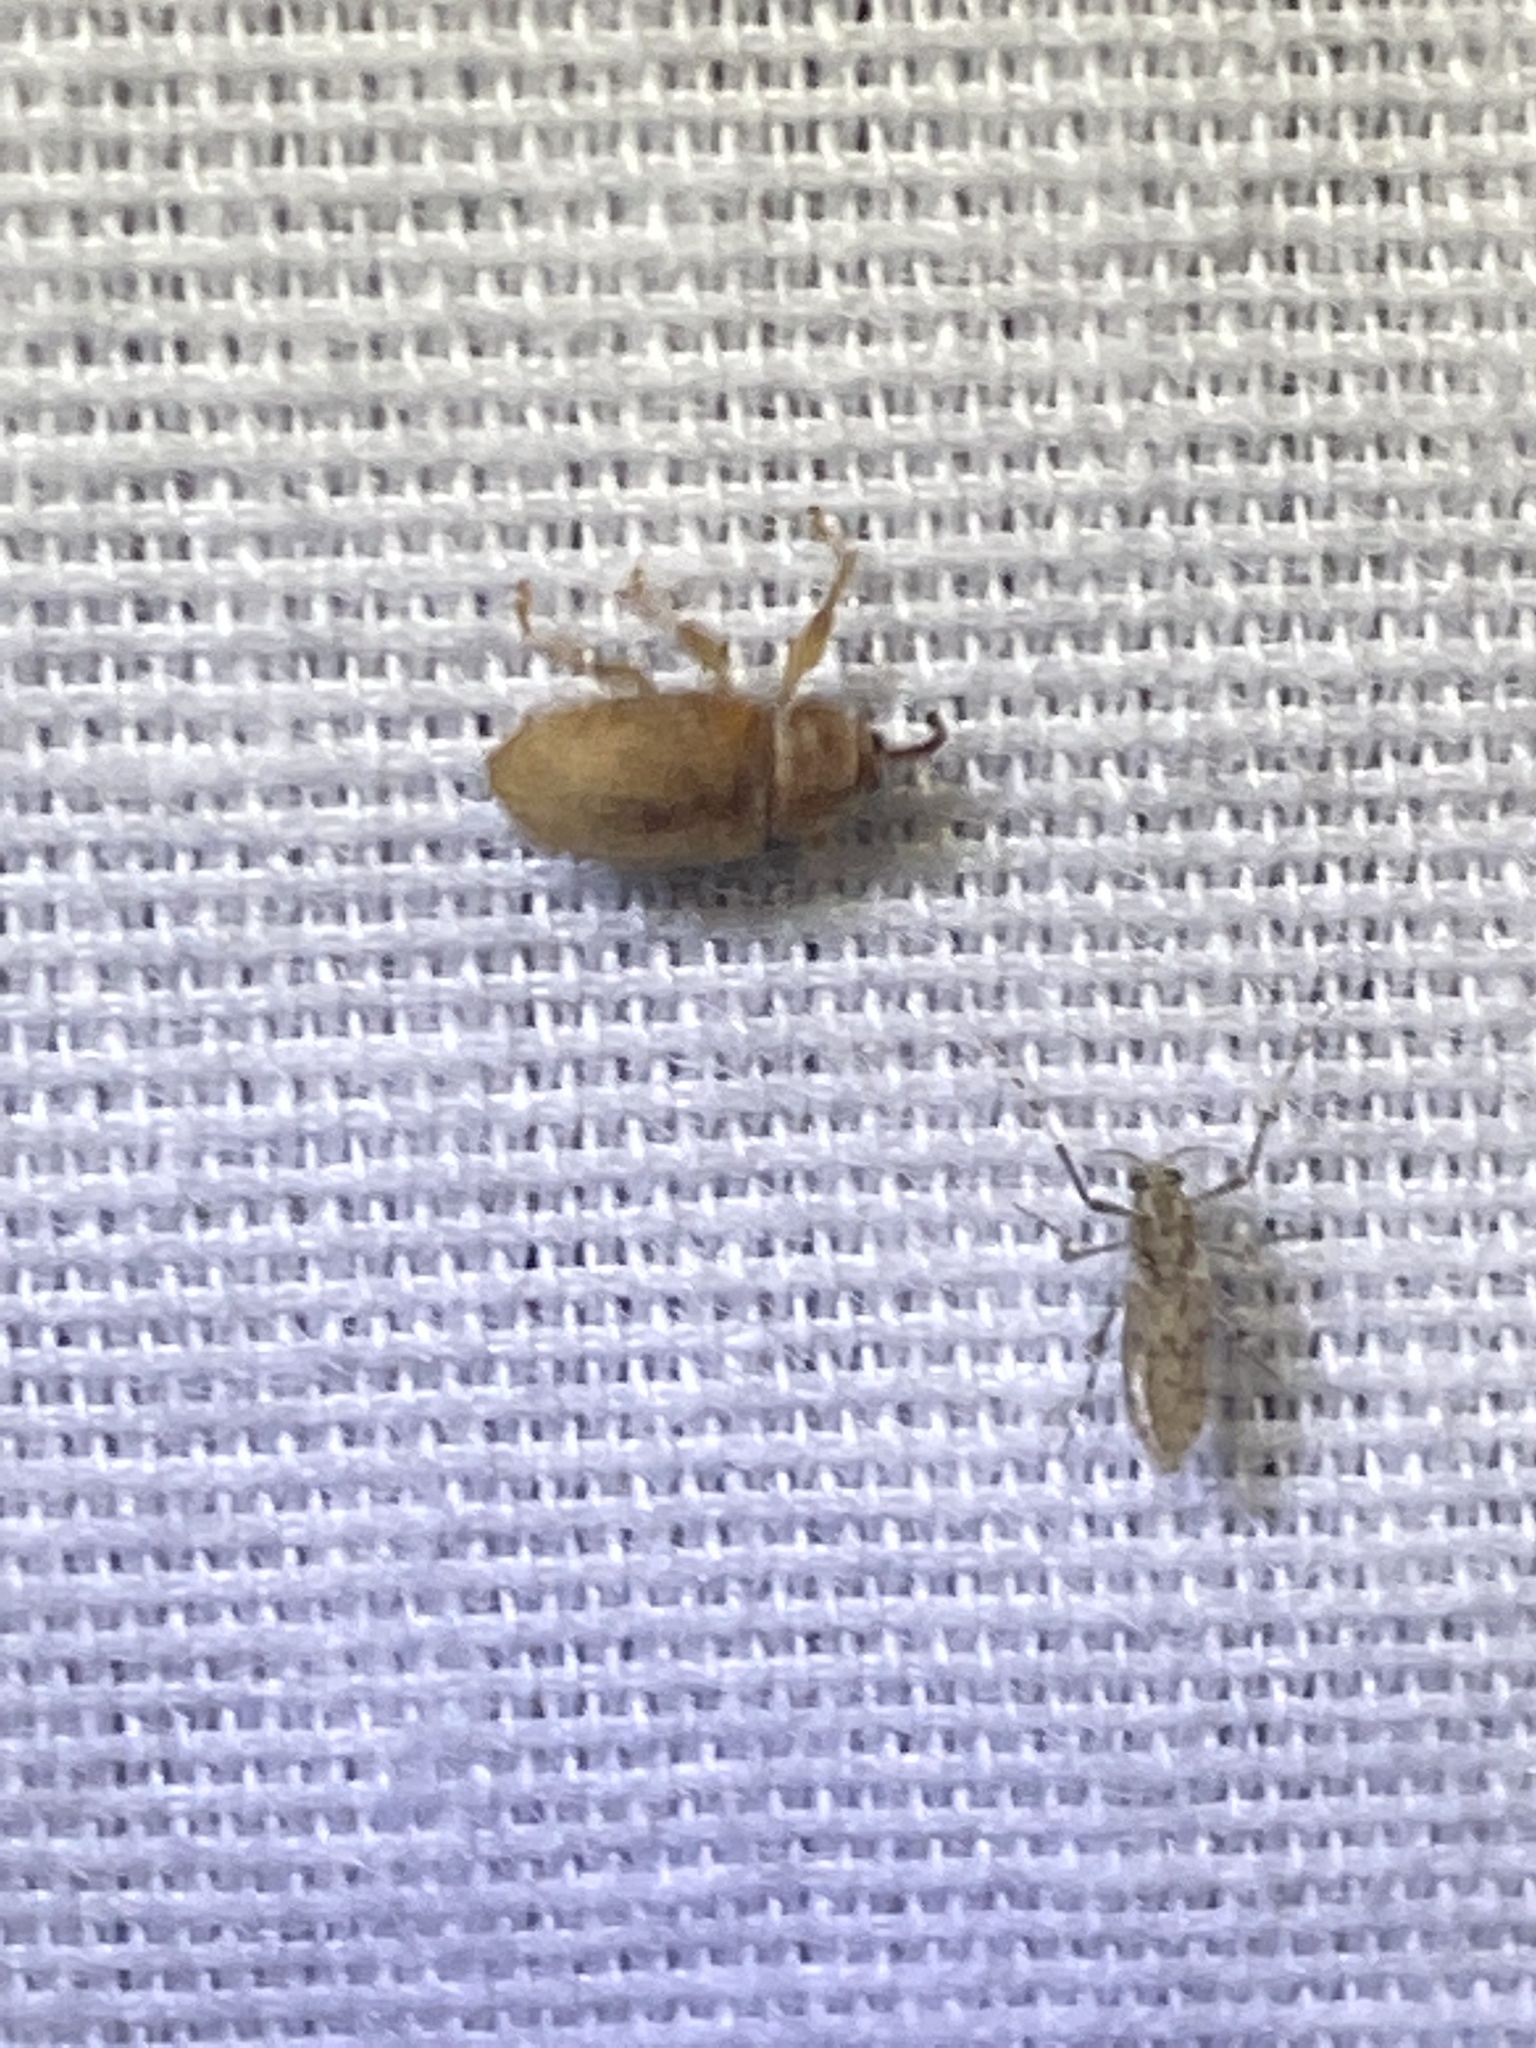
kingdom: Animalia
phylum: Arthropoda
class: Insecta
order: Coleoptera
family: Curculionidae
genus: Lignyodes
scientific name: Lignyodes helvolus
